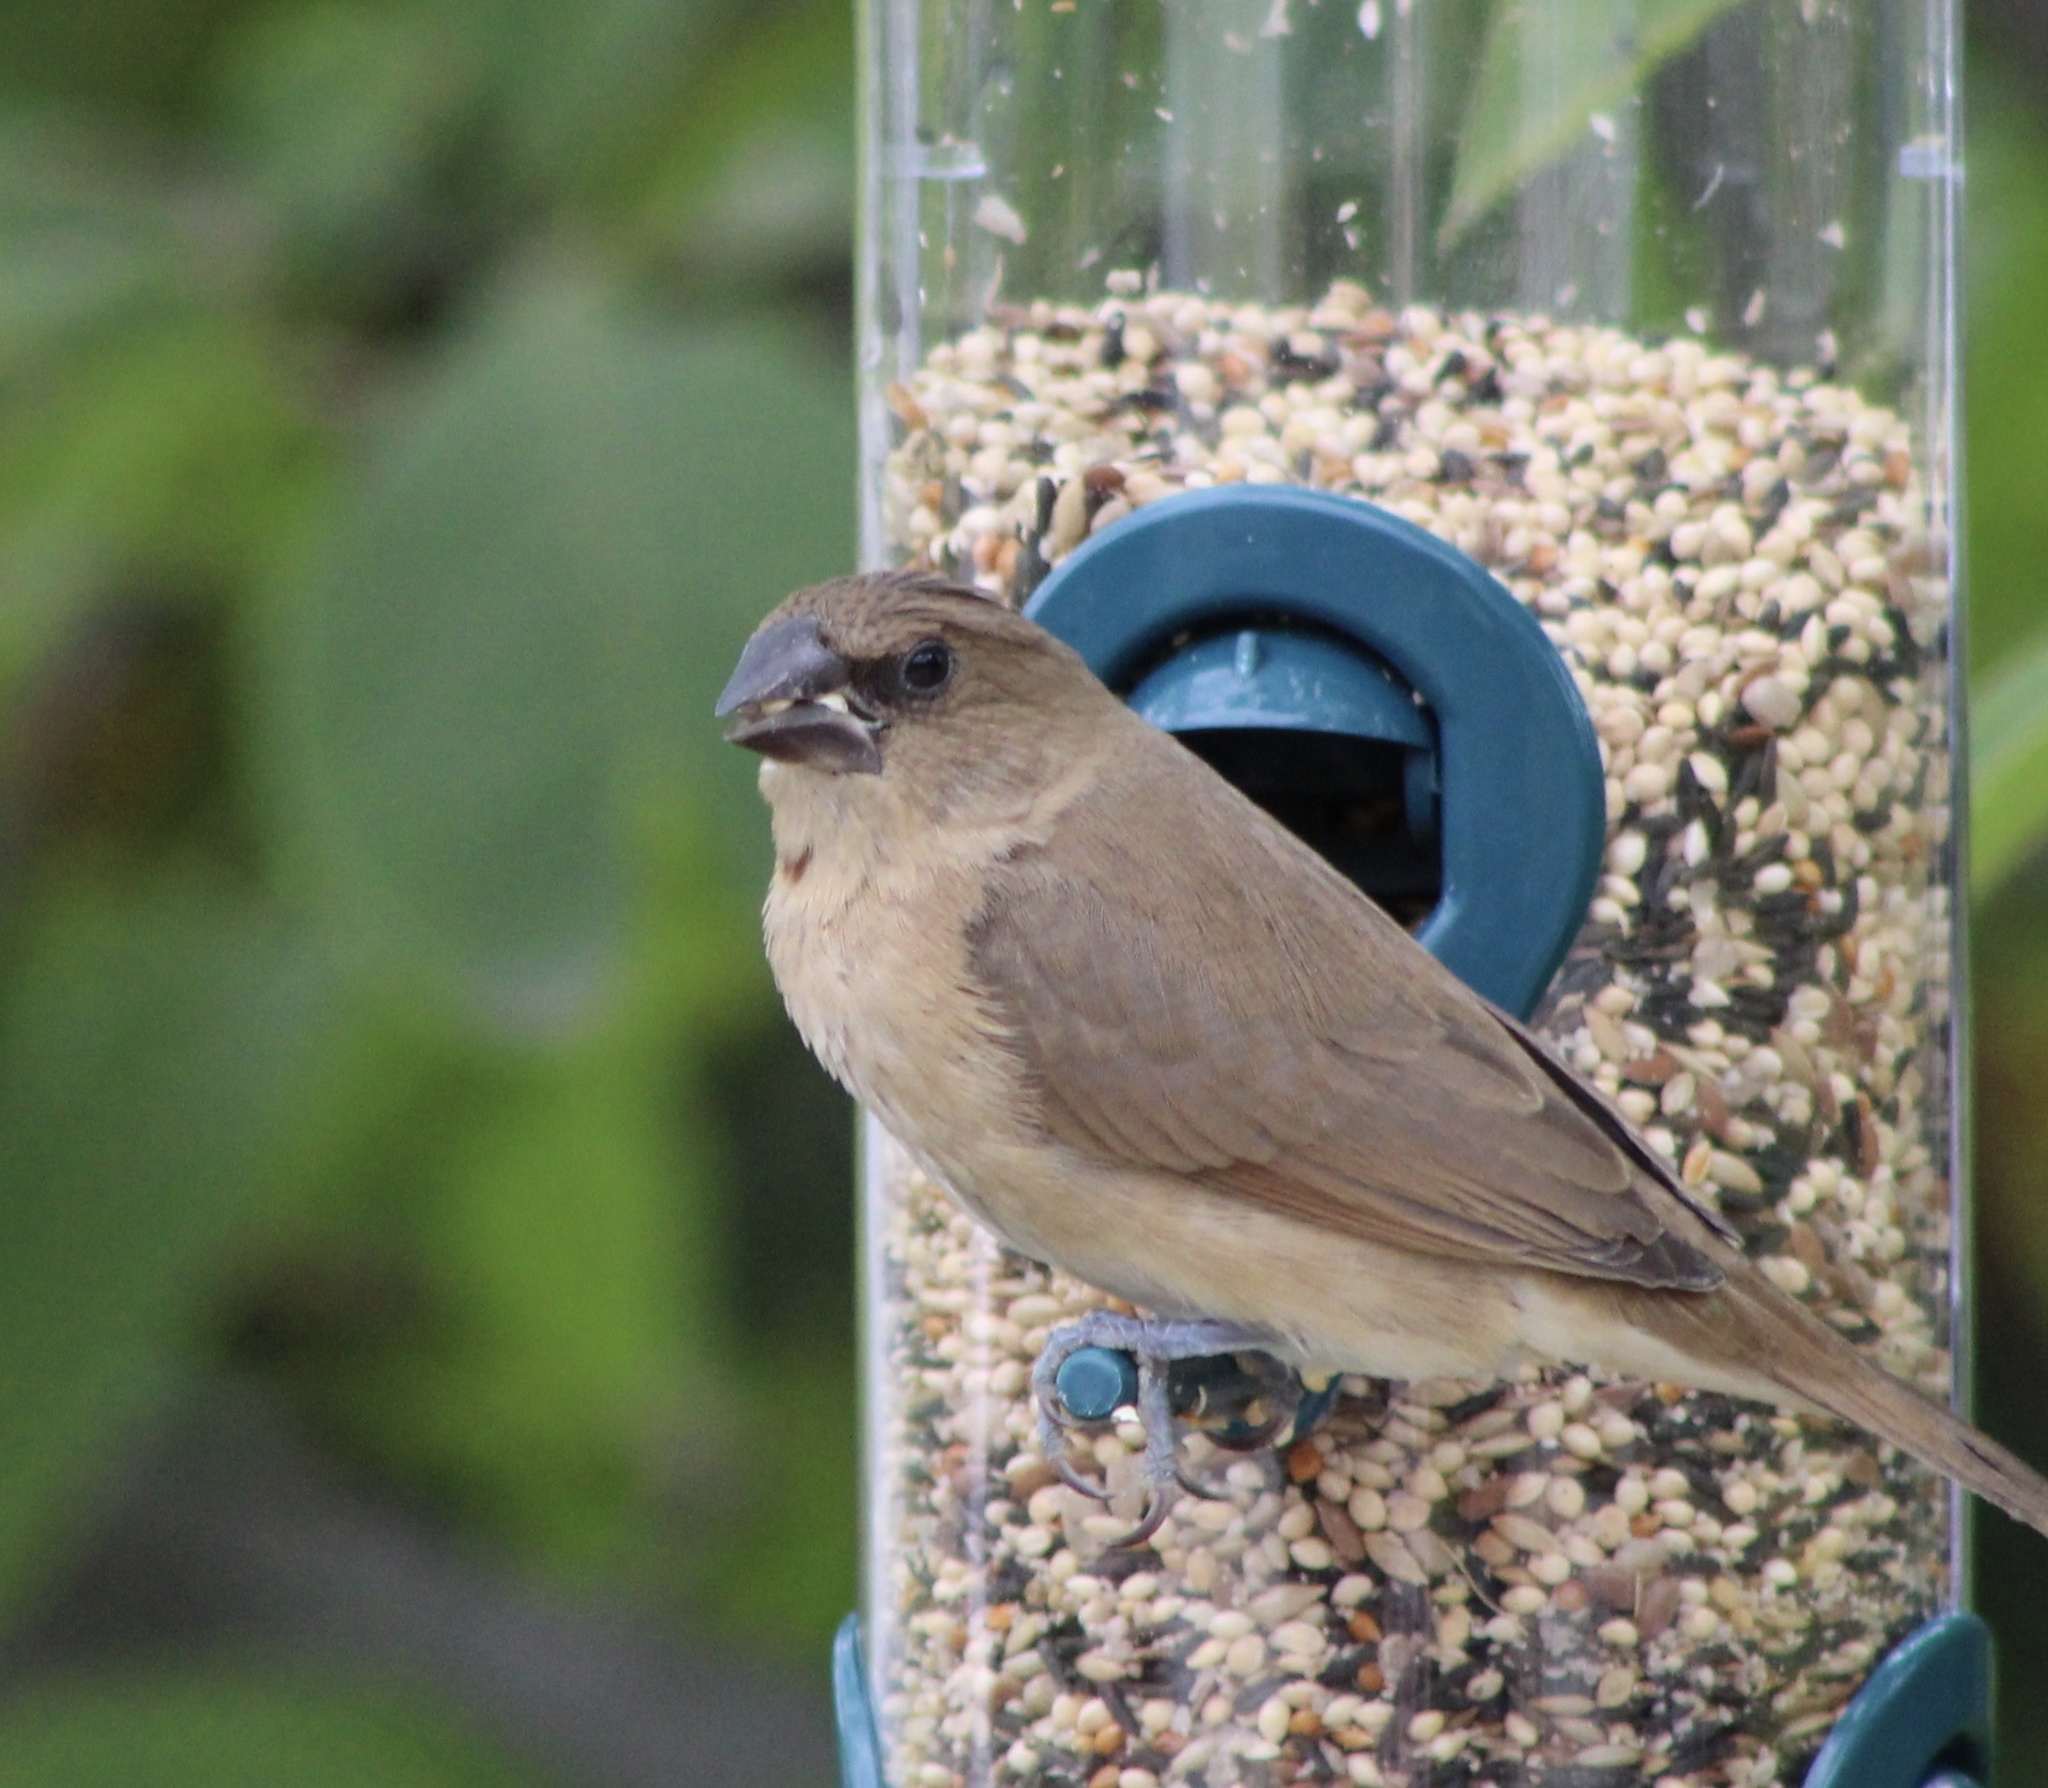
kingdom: Animalia
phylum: Chordata
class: Aves
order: Passeriformes
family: Estrildidae
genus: Lonchura
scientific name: Lonchura punctulata
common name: Scaly-breasted munia
